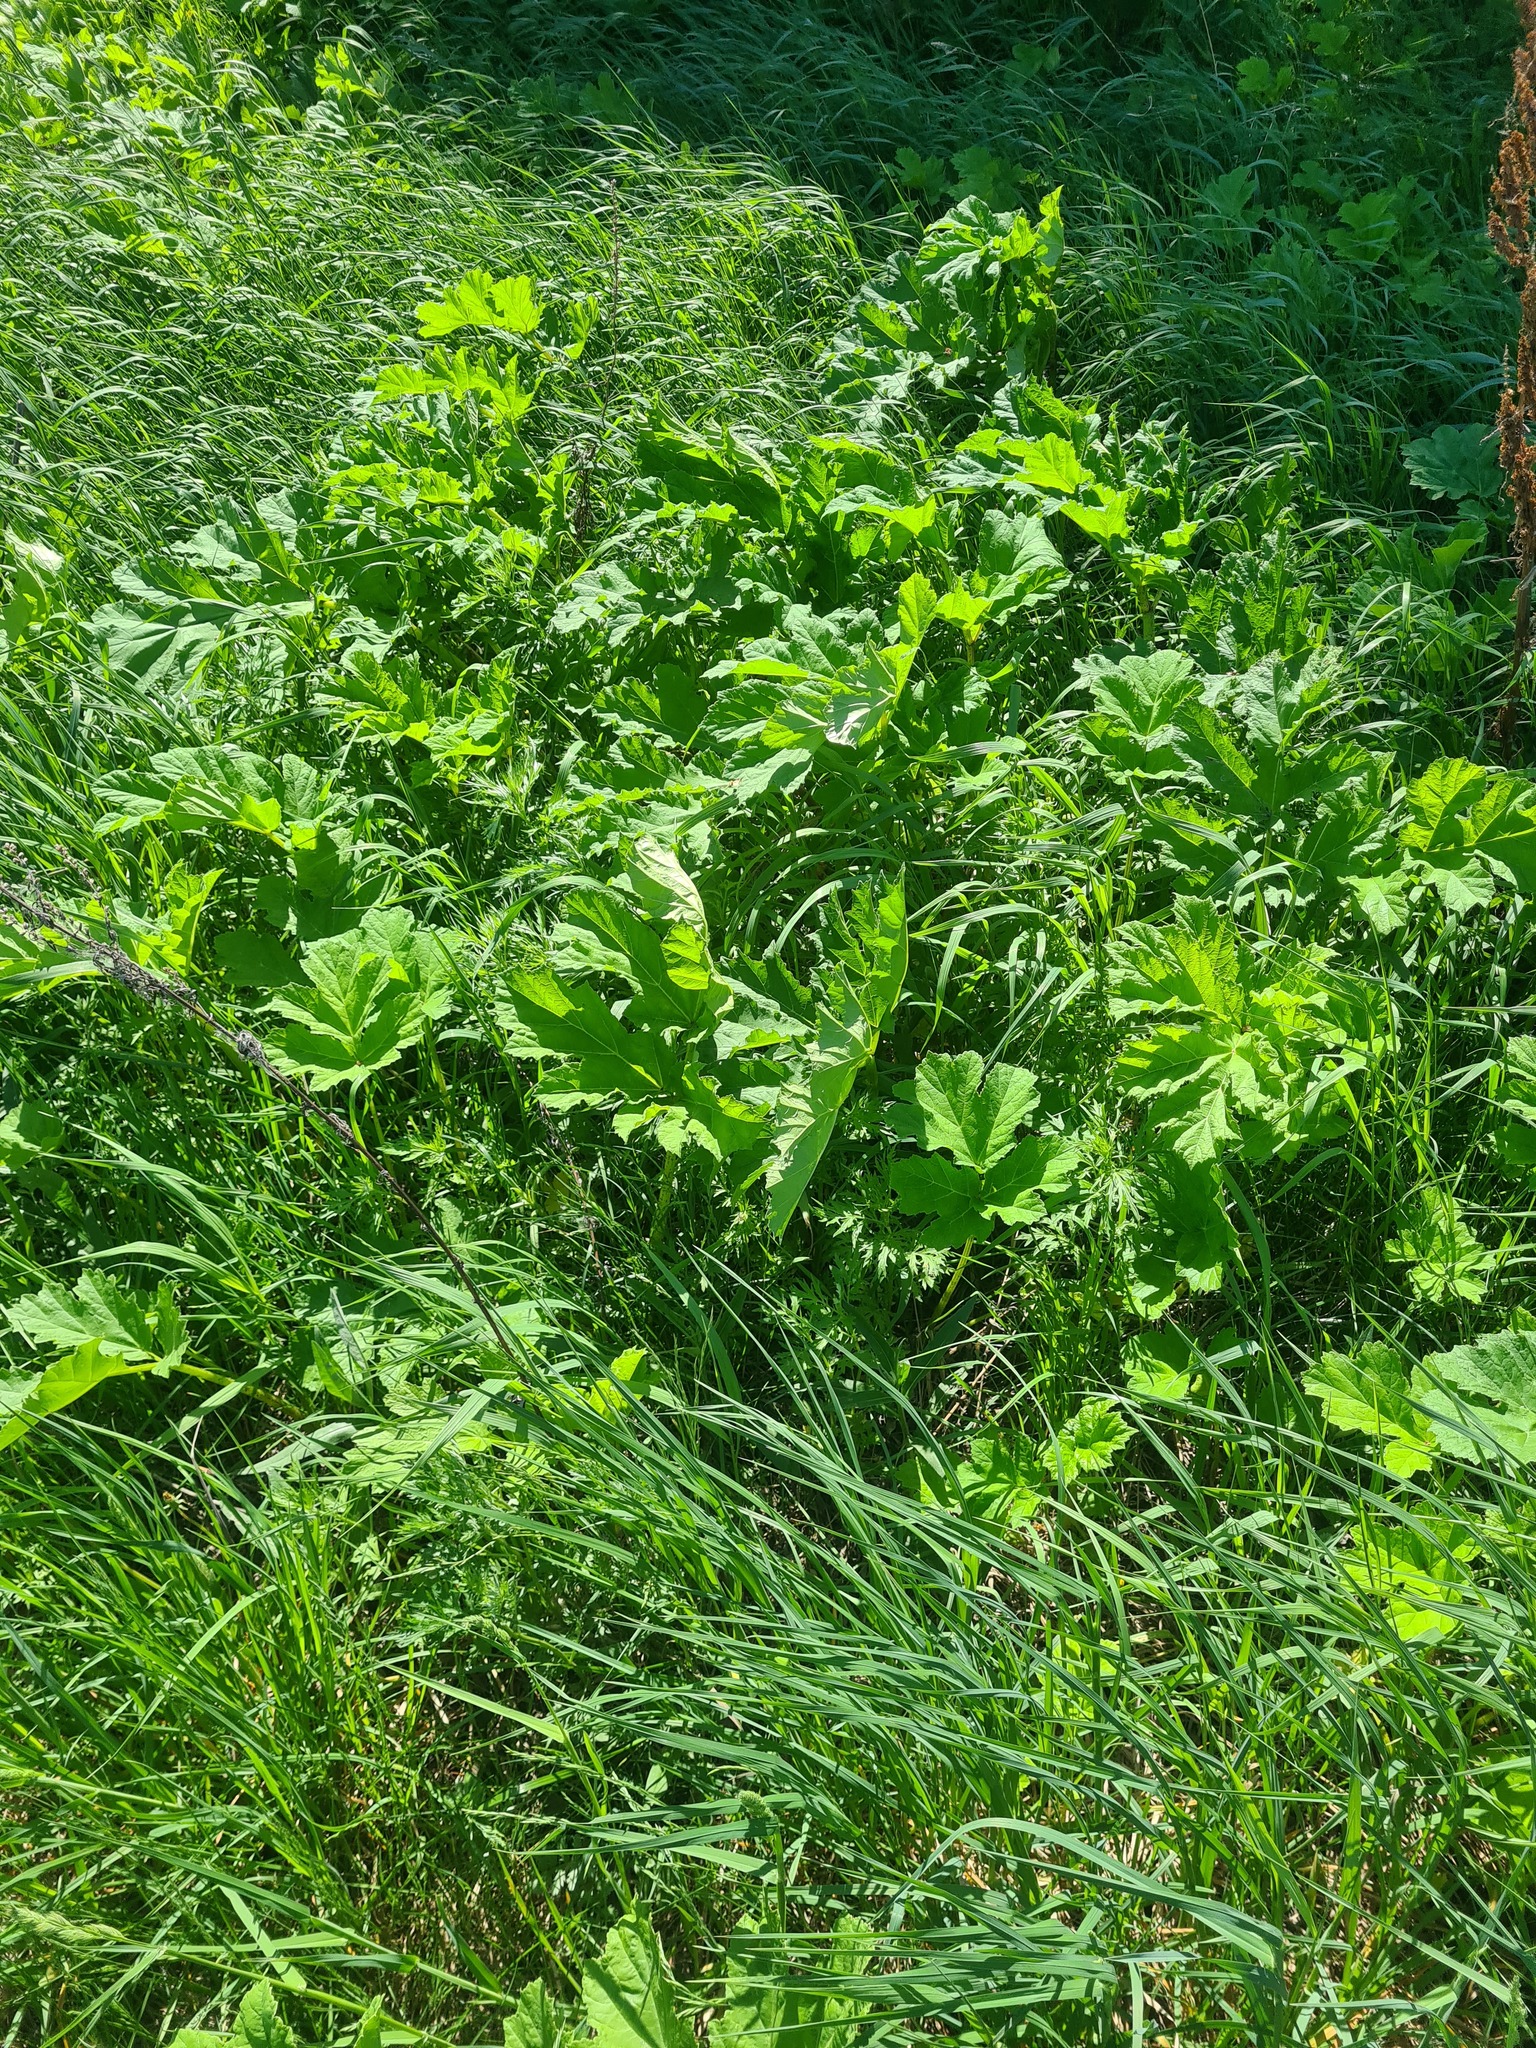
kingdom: Plantae
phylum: Tracheophyta
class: Magnoliopsida
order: Apiales
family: Apiaceae
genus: Heracleum
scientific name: Heracleum sosnowskyi
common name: Sosnowsky's hogweed
